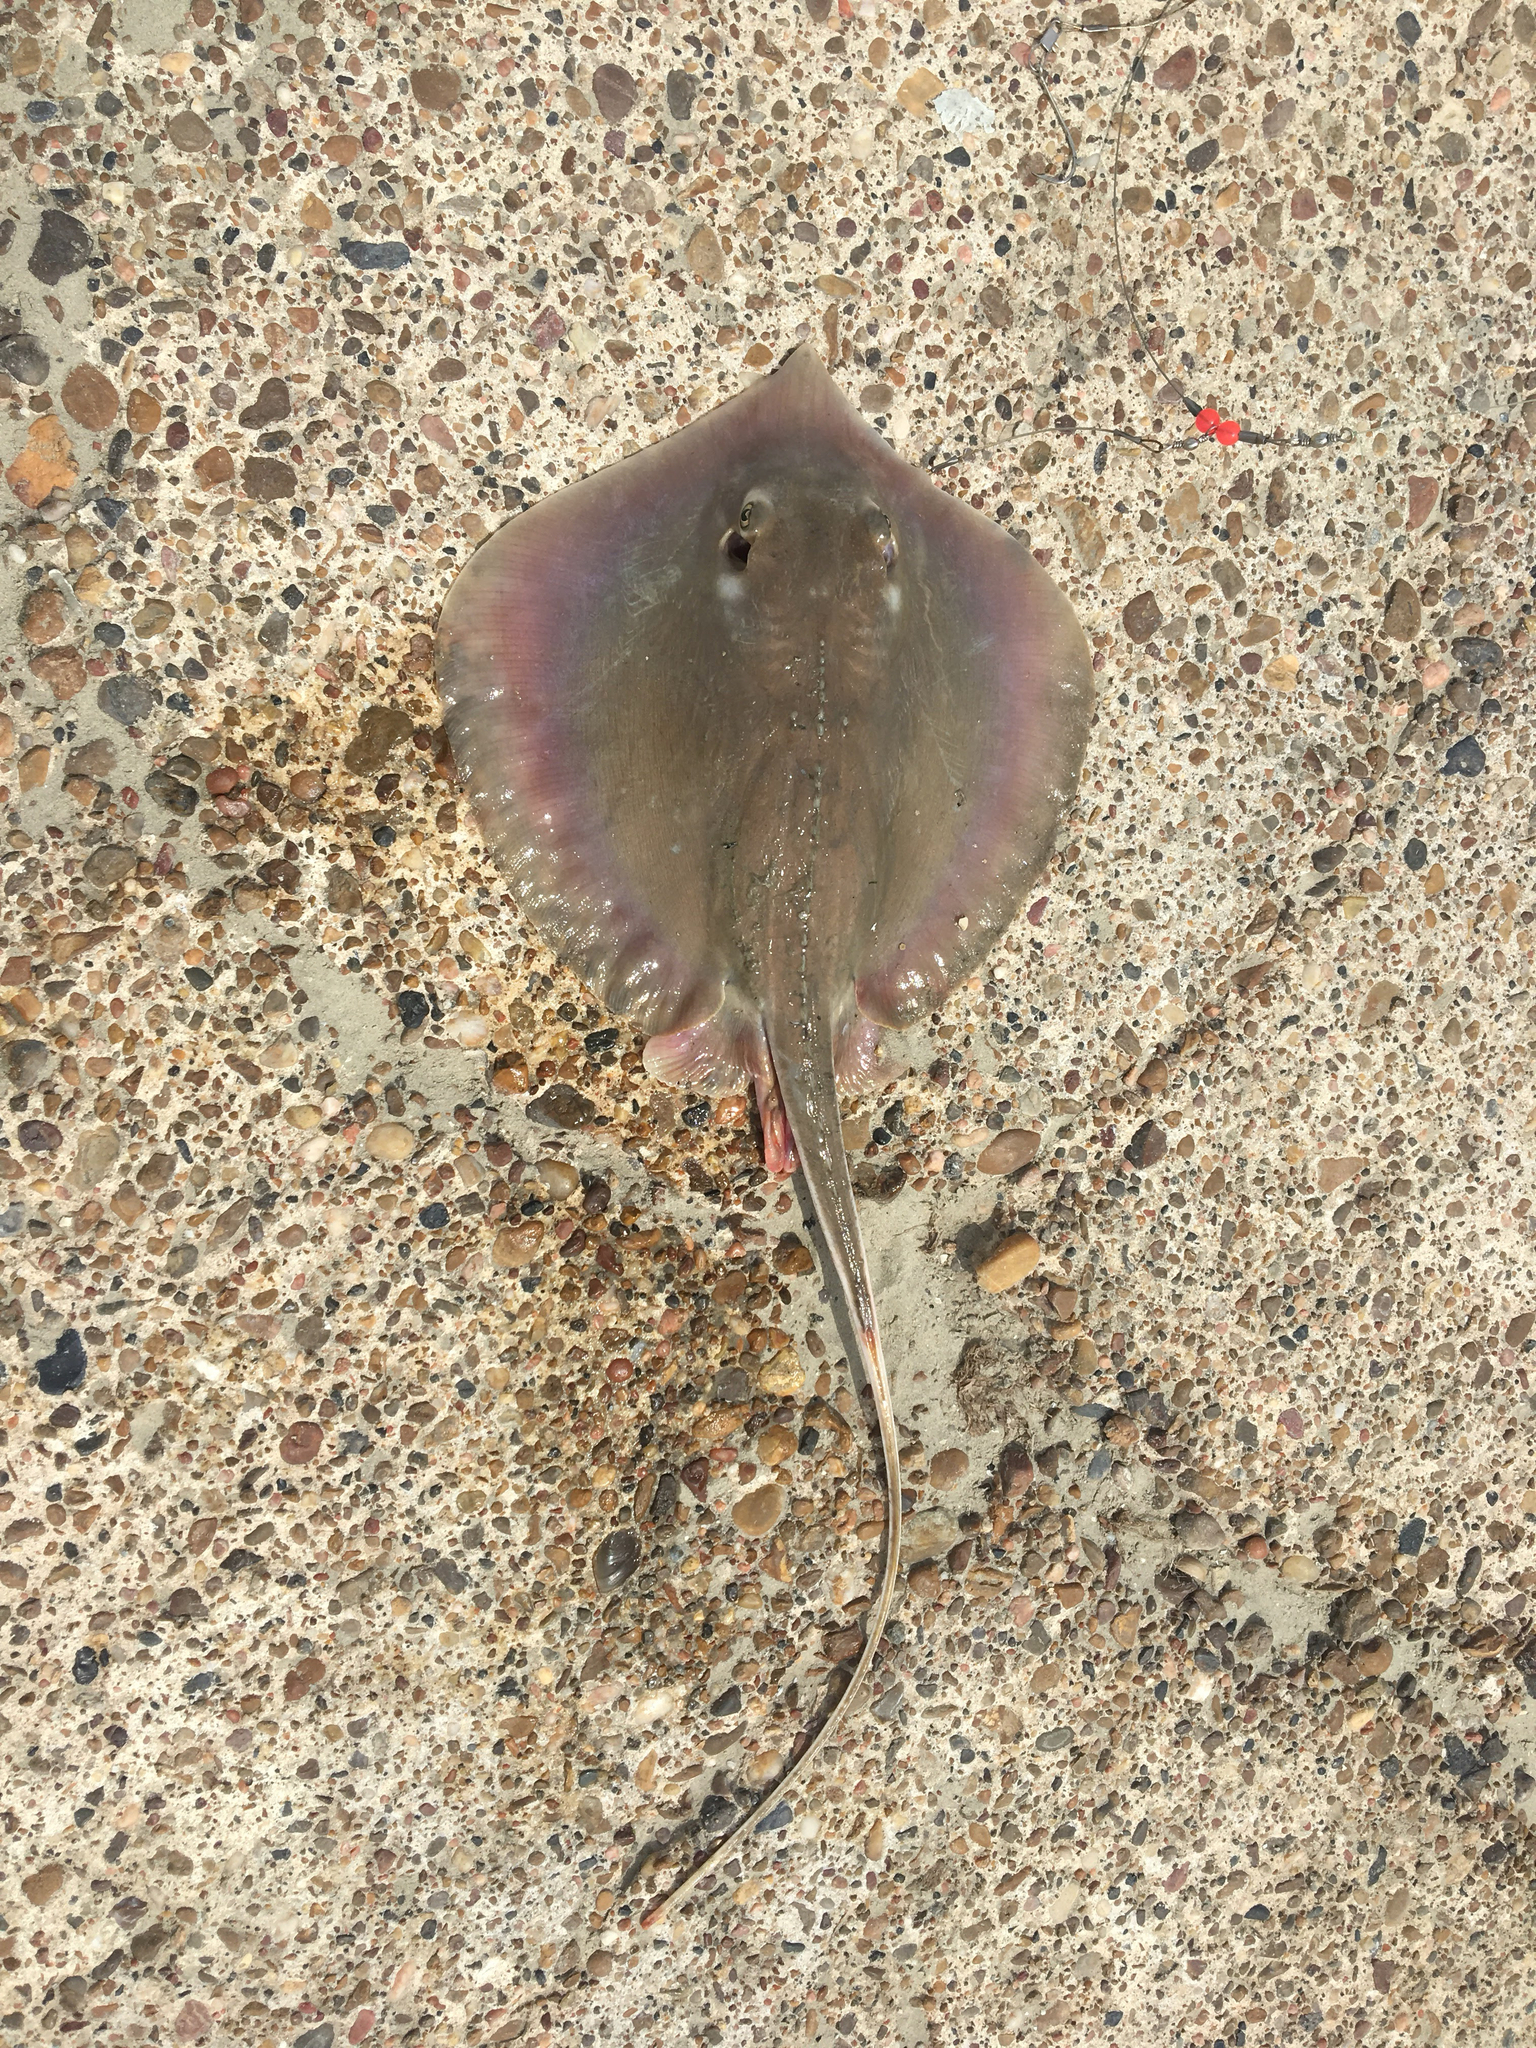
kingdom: Animalia
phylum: Chordata
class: Elasmobranchii
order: Myliobatiformes
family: Dasyatidae
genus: Hypanus
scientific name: Hypanus sabinus
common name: Atlantic stingray
